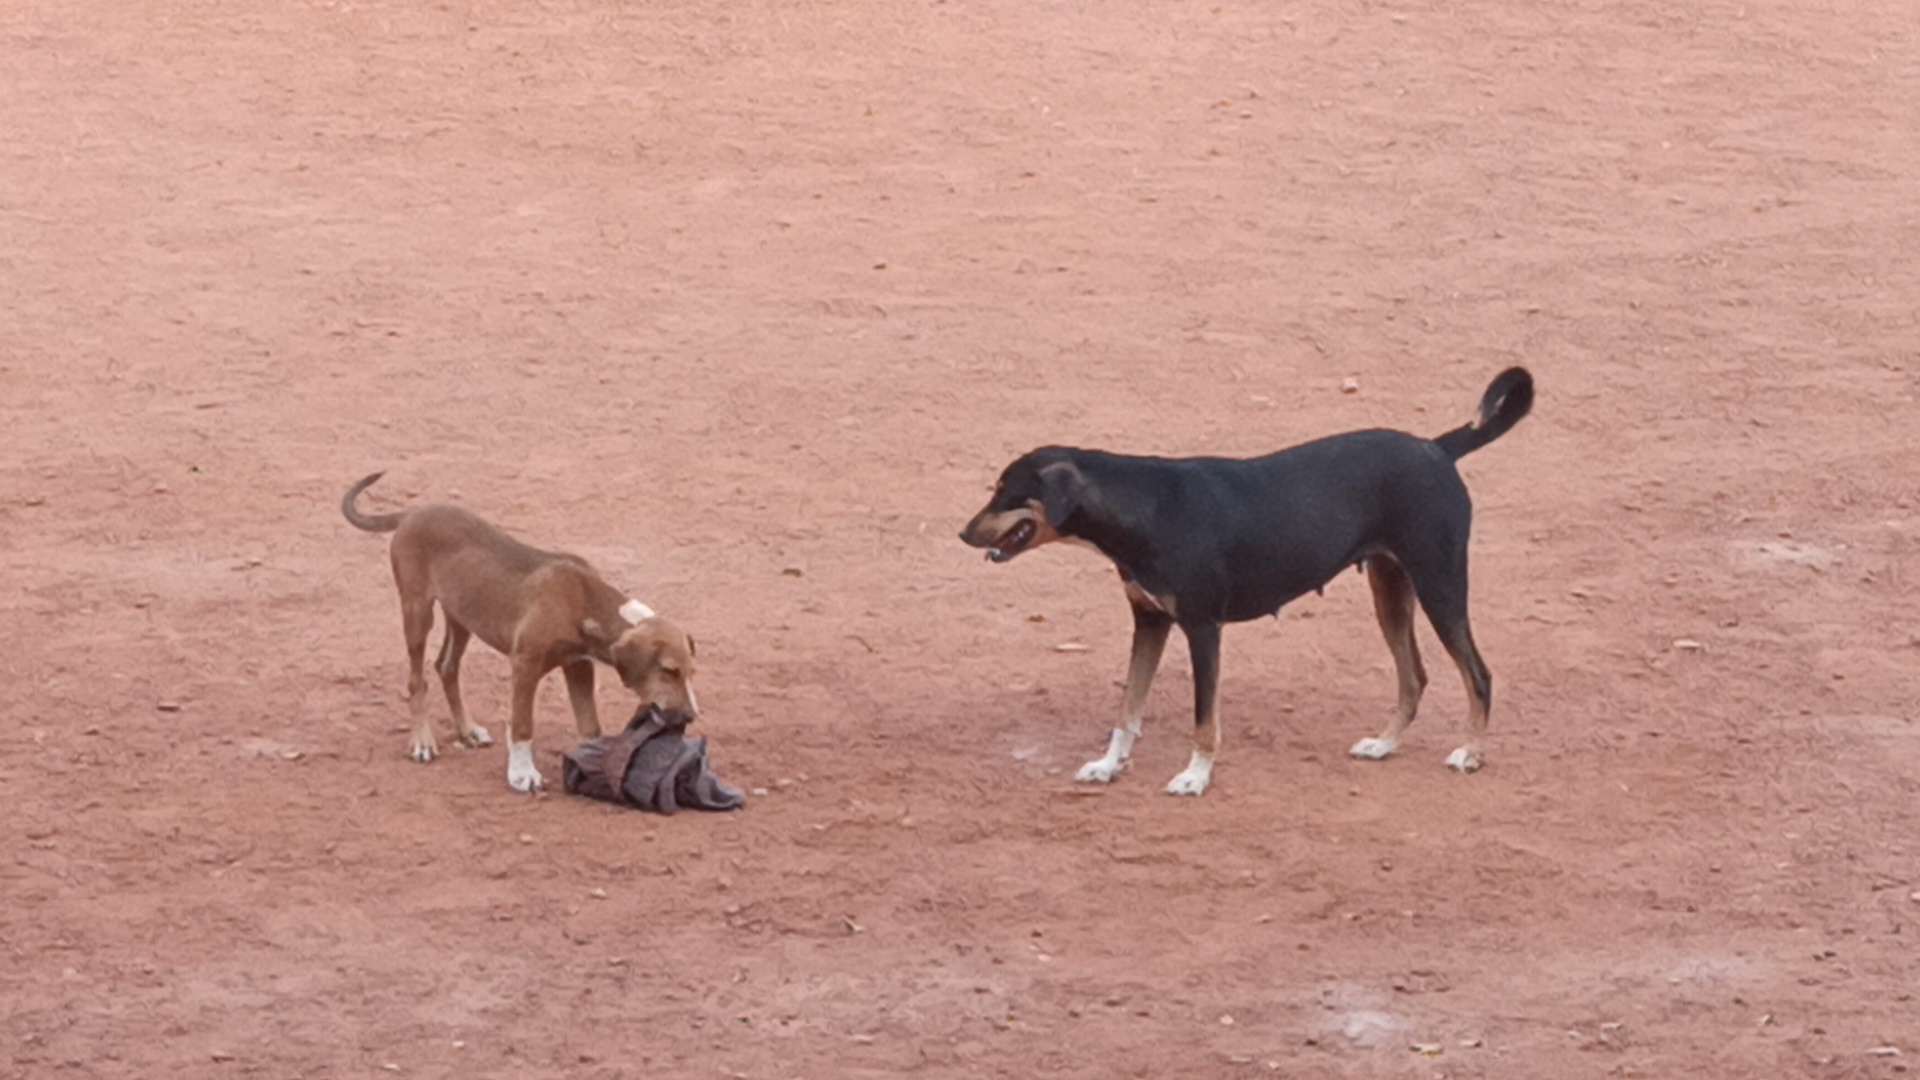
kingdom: Animalia
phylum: Chordata
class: Mammalia
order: Carnivora
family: Canidae
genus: Canis
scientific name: Canis lupus
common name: Gray wolf
